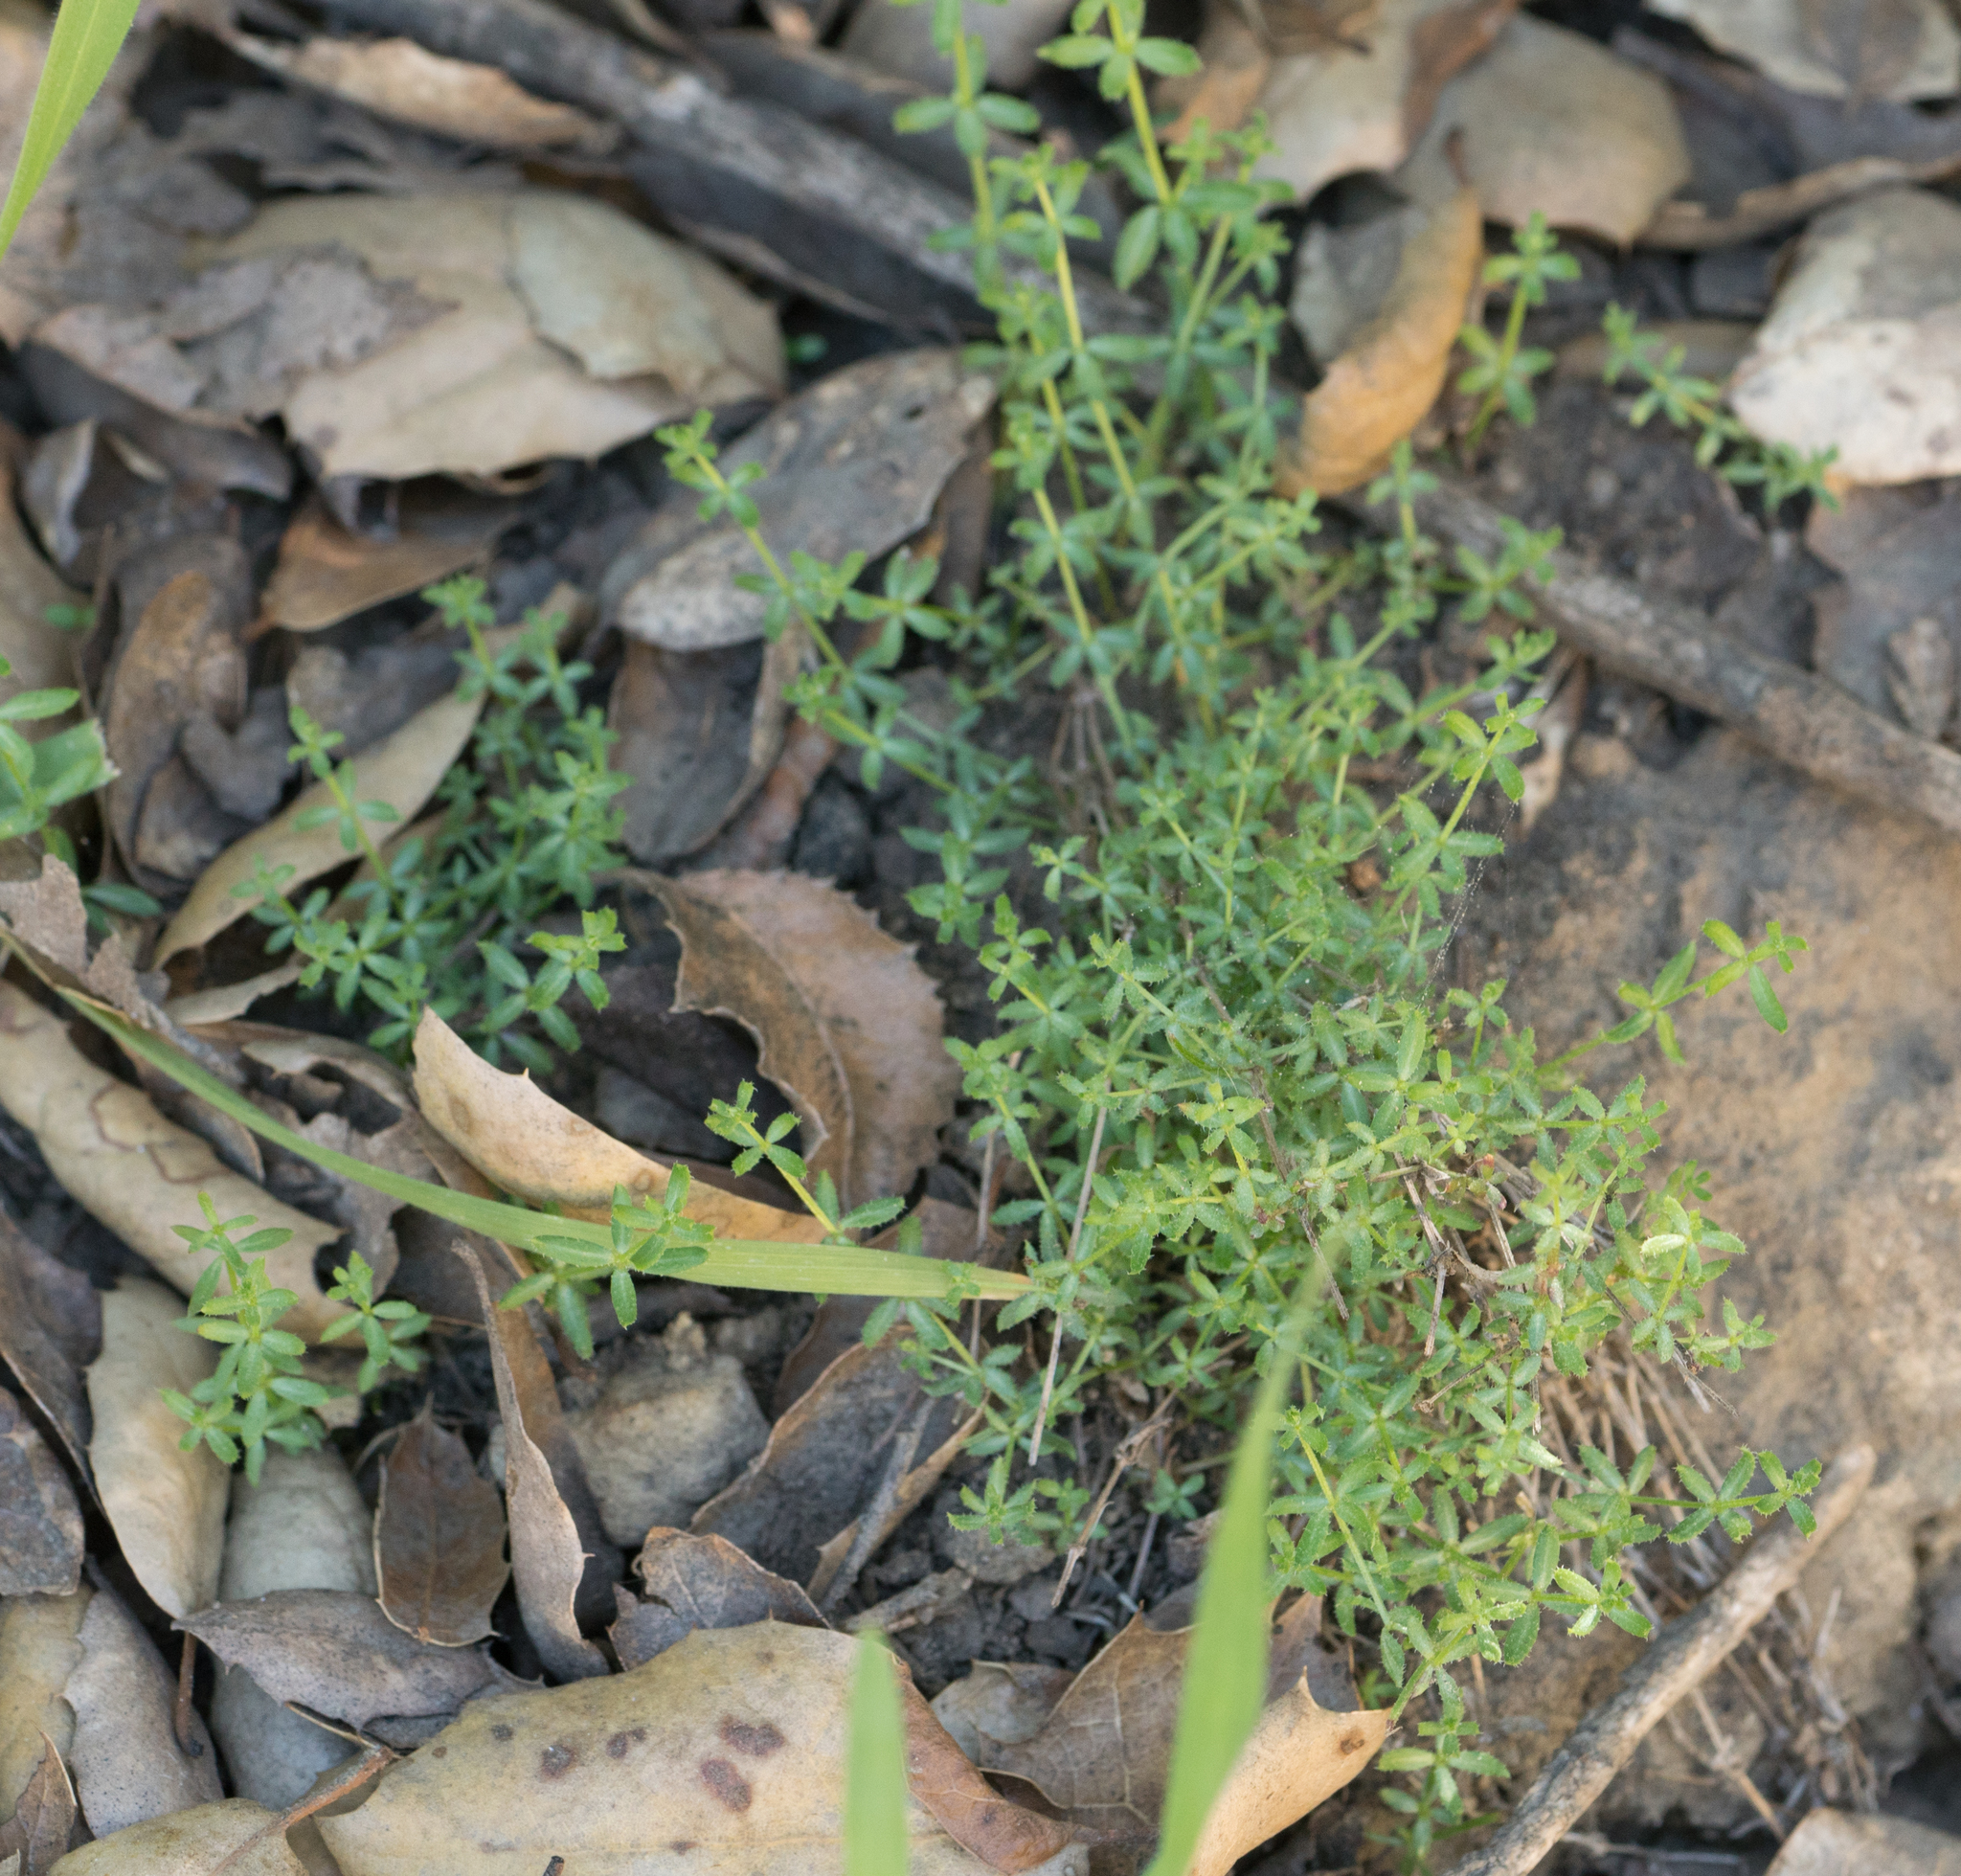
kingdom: Plantae
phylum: Tracheophyta
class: Magnoliopsida
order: Gentianales
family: Rubiaceae
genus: Galium
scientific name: Galium angustifolium
